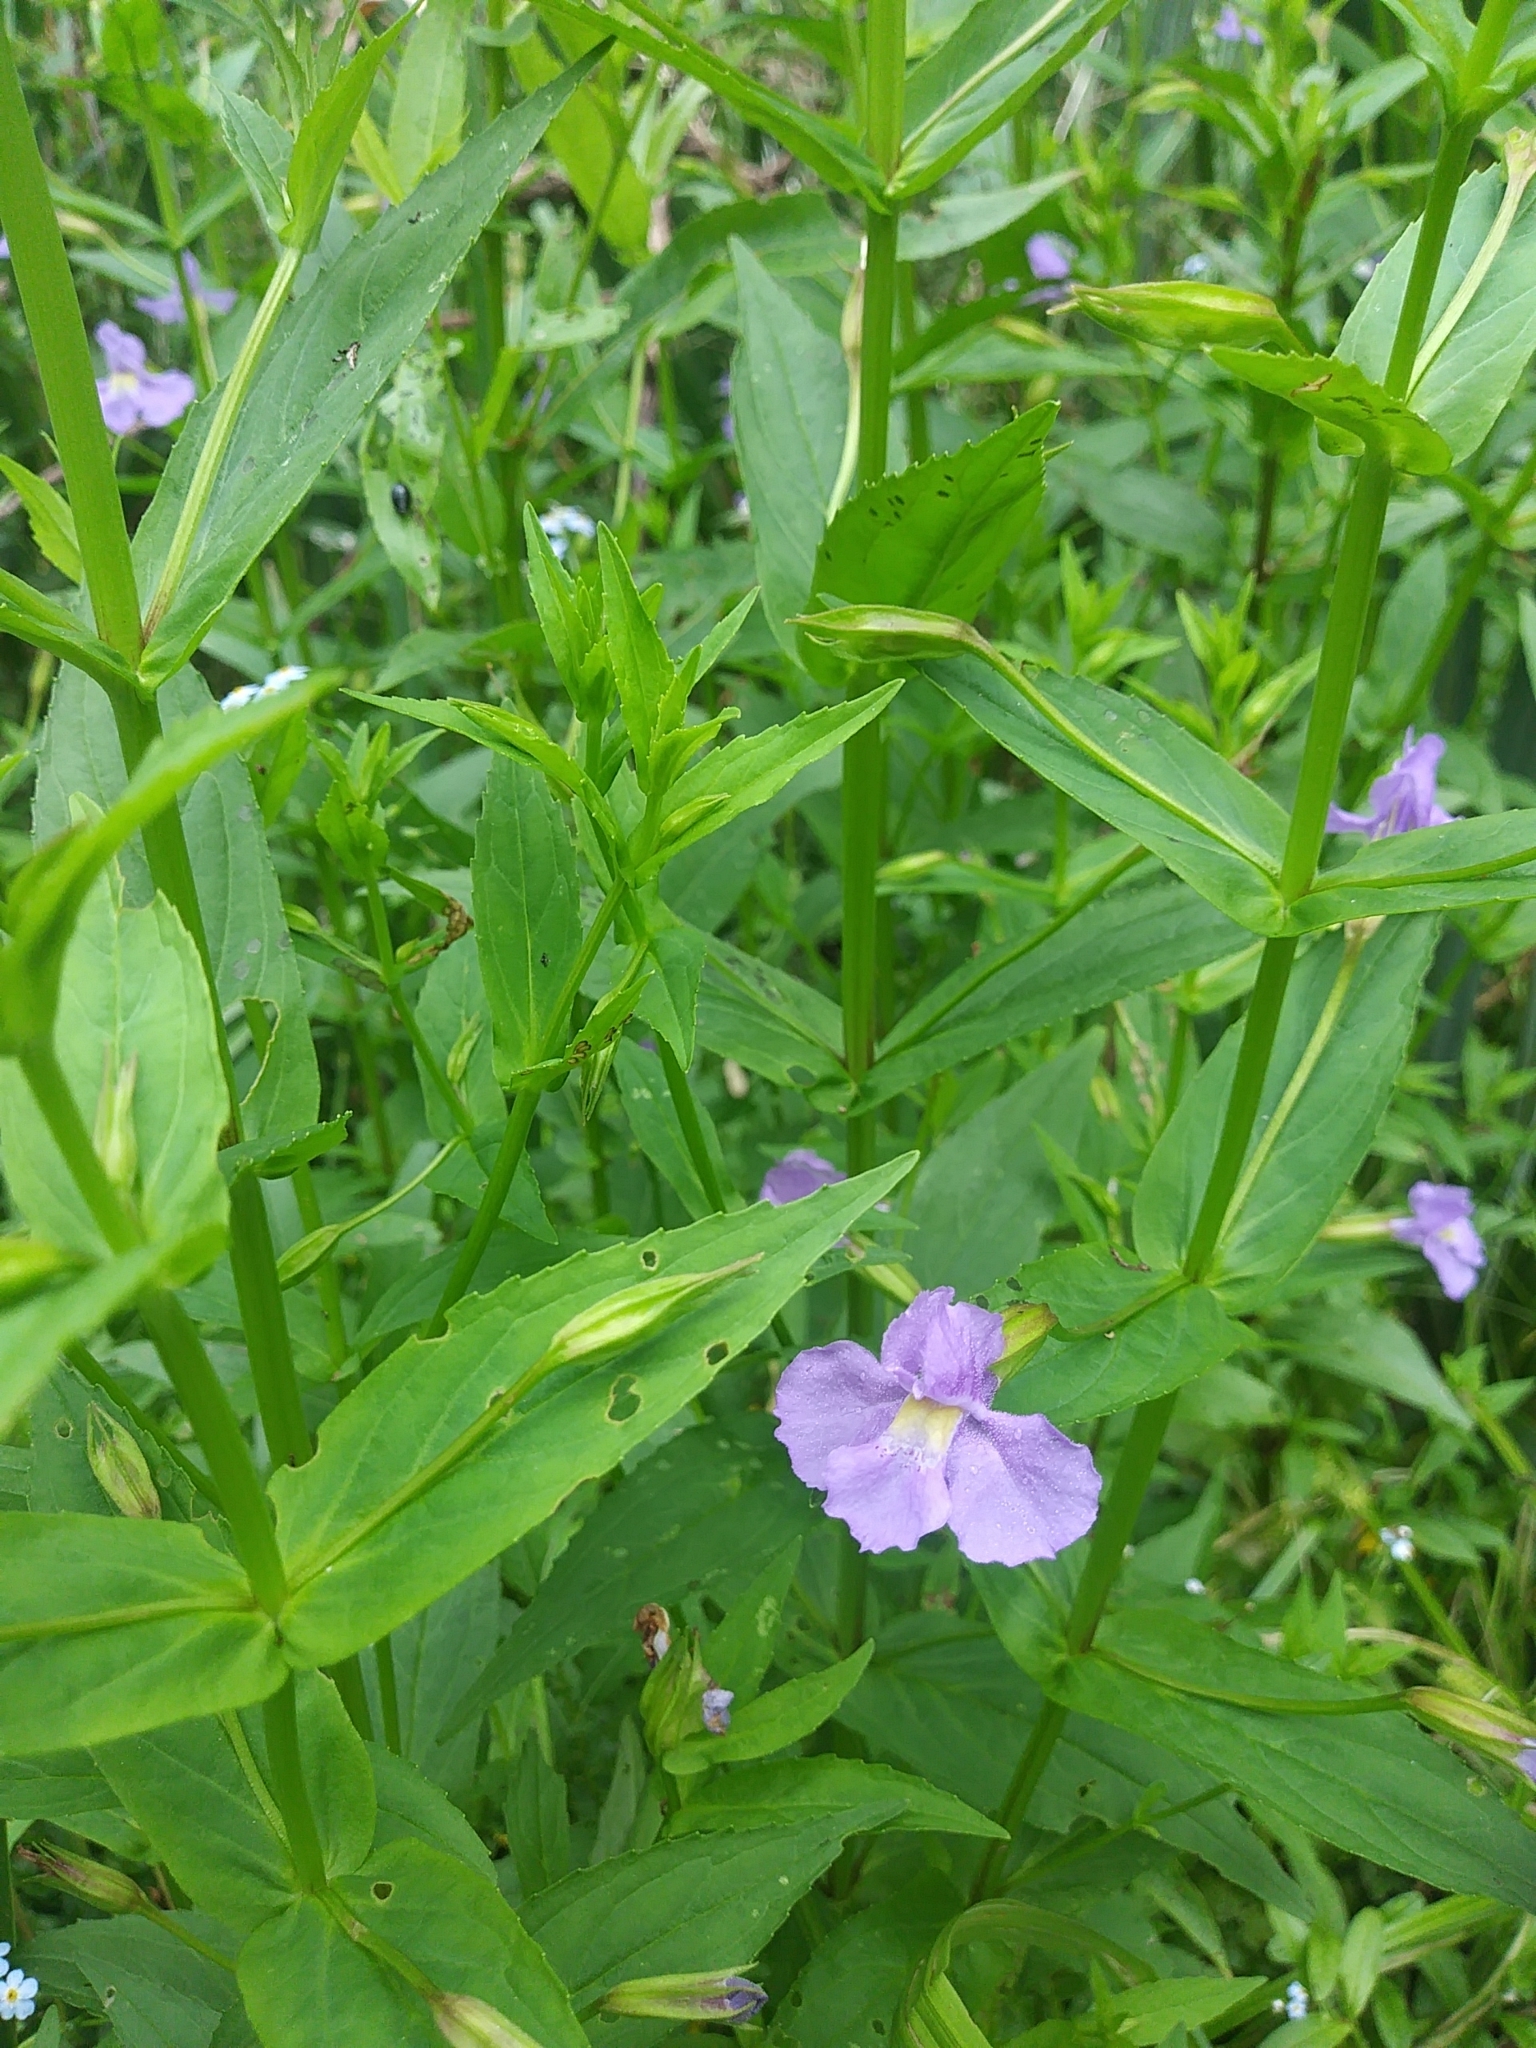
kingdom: Plantae
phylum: Tracheophyta
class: Magnoliopsida
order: Lamiales
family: Phrymaceae
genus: Mimulus
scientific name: Mimulus ringens
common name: Allegheny monkeyflower
